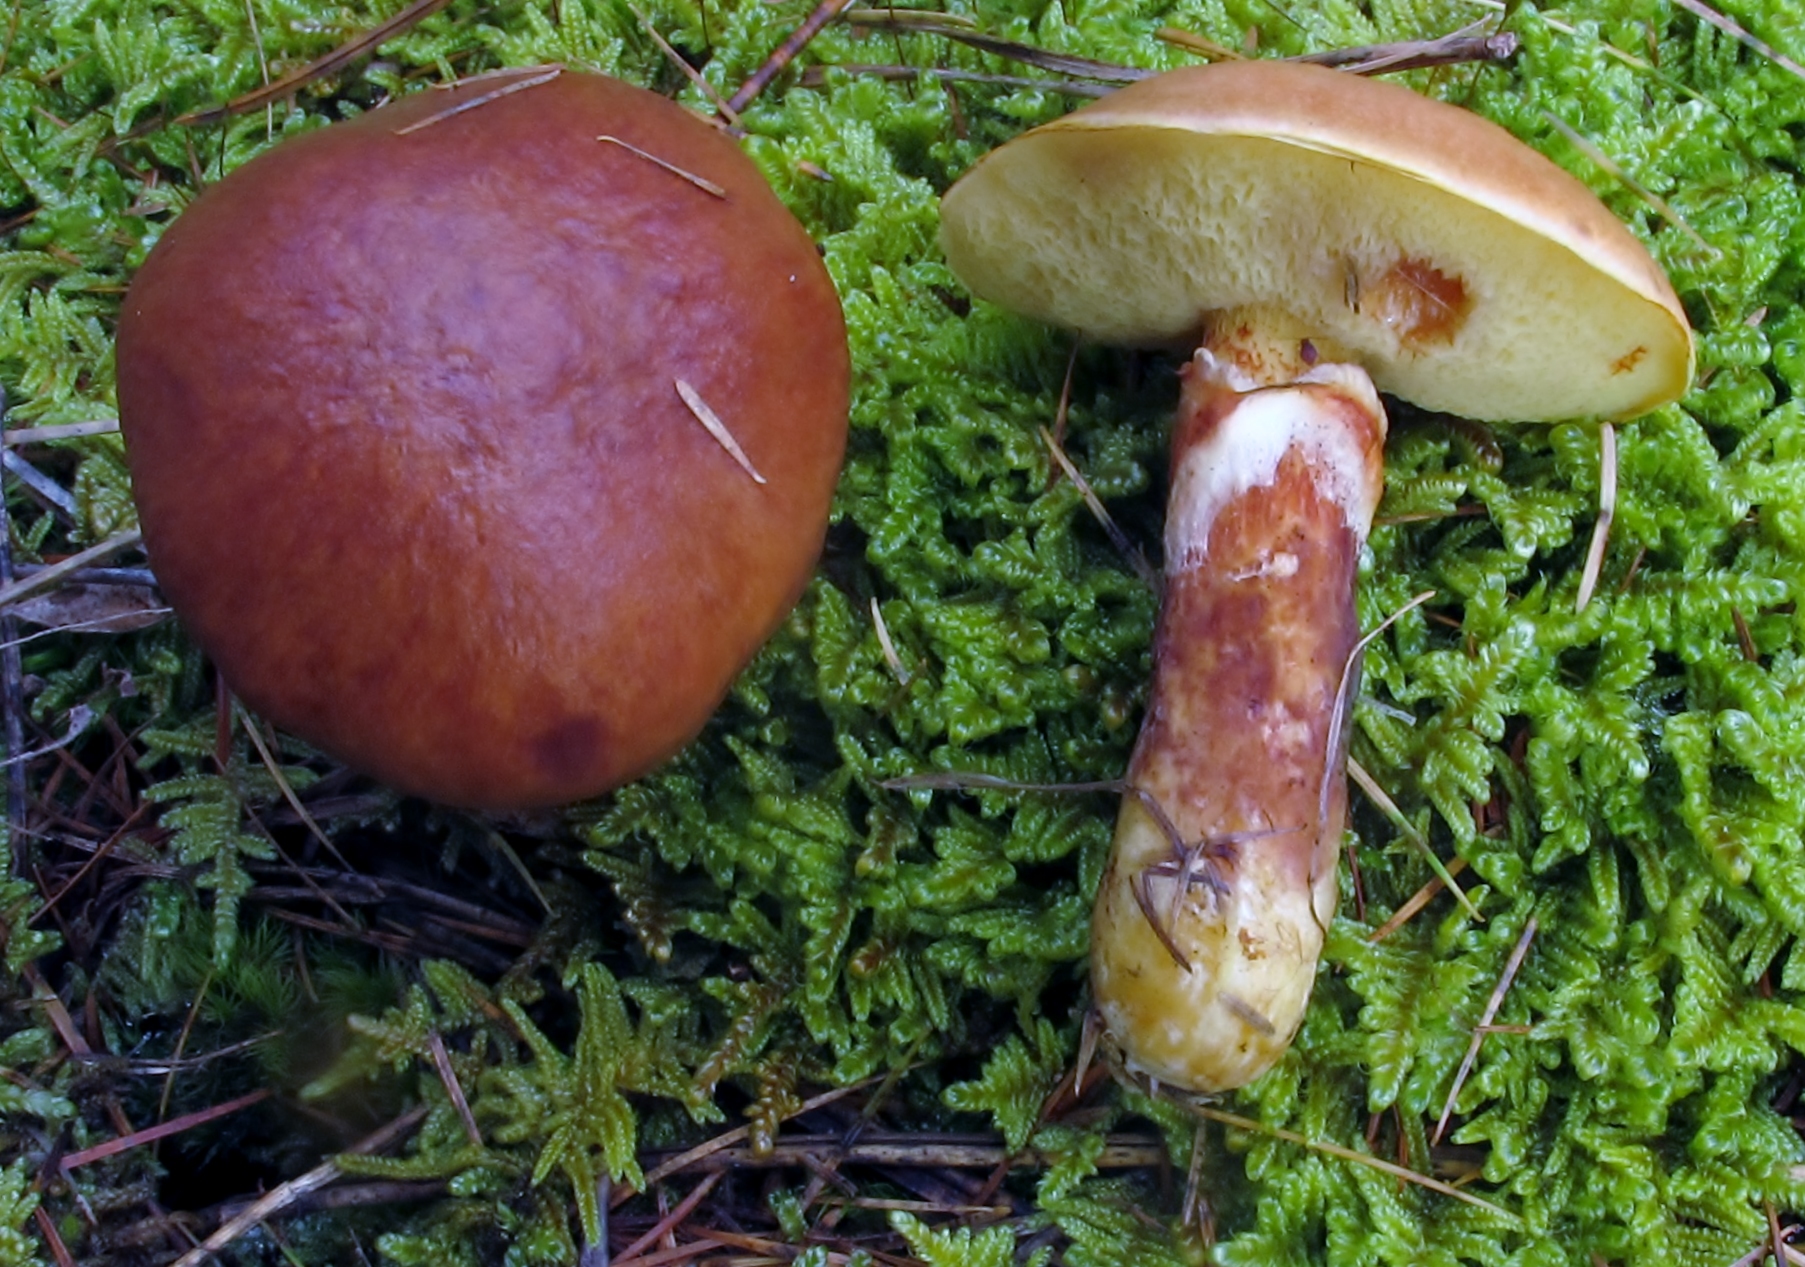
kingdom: Fungi
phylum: Basidiomycota
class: Agaricomycetes
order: Boletales
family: Suillaceae
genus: Suillus
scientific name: Suillus grevillei
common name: Larch bolete
